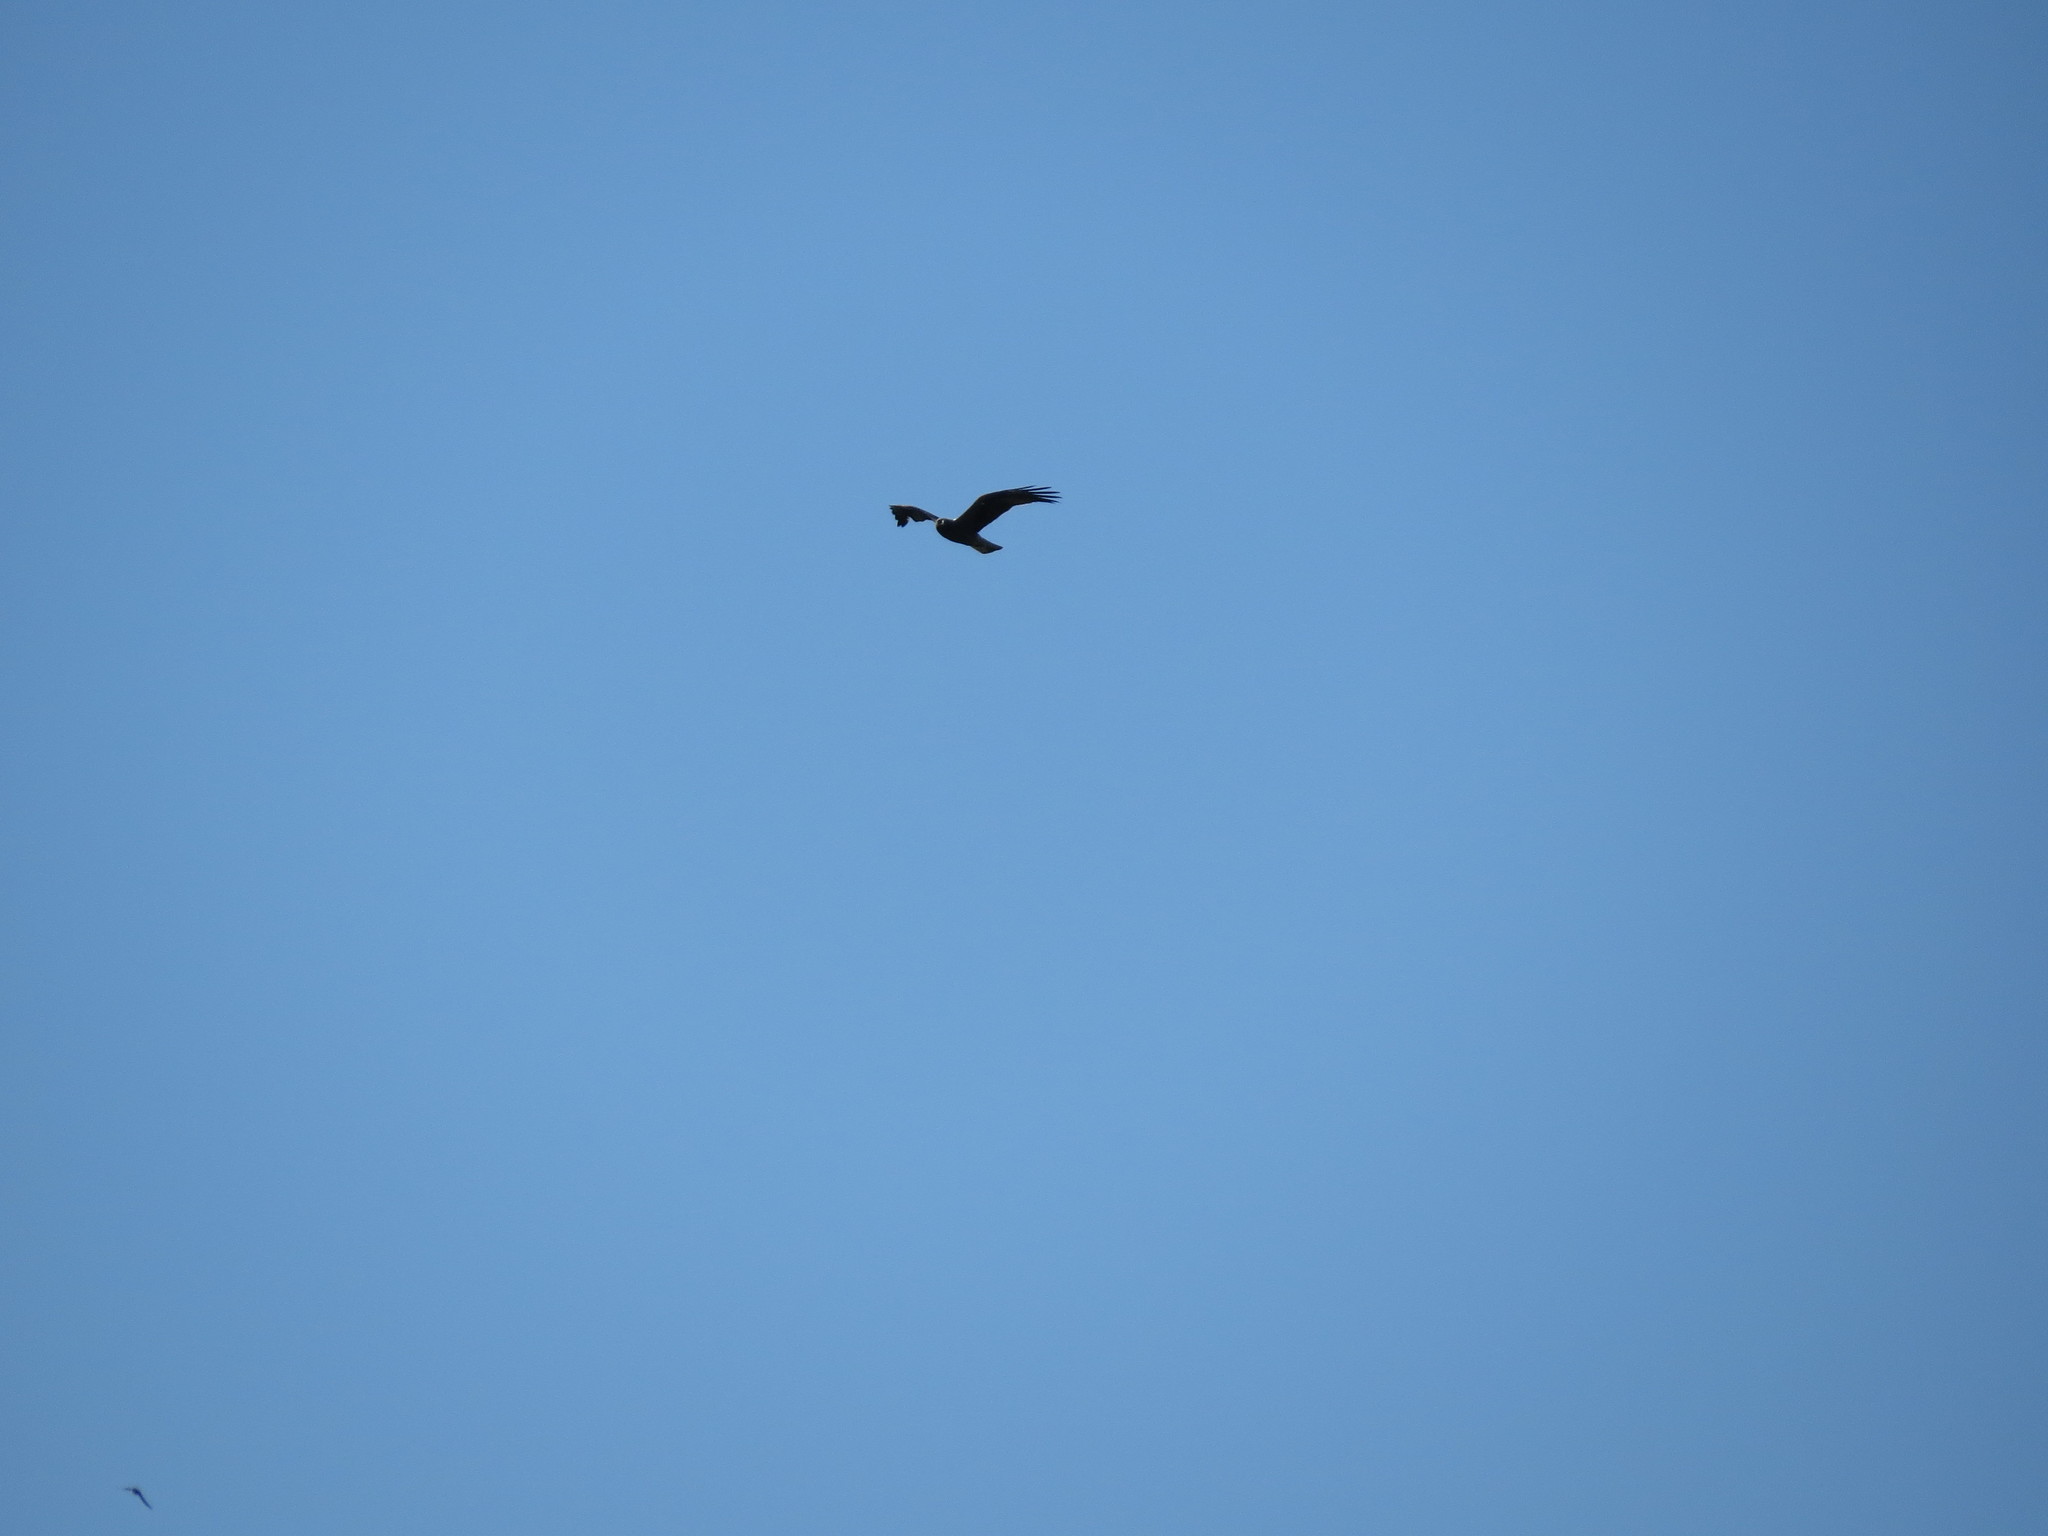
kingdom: Animalia
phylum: Chordata
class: Aves
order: Passeriformes
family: Corvidae
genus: Corvus
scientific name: Corvus corax
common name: Common raven
